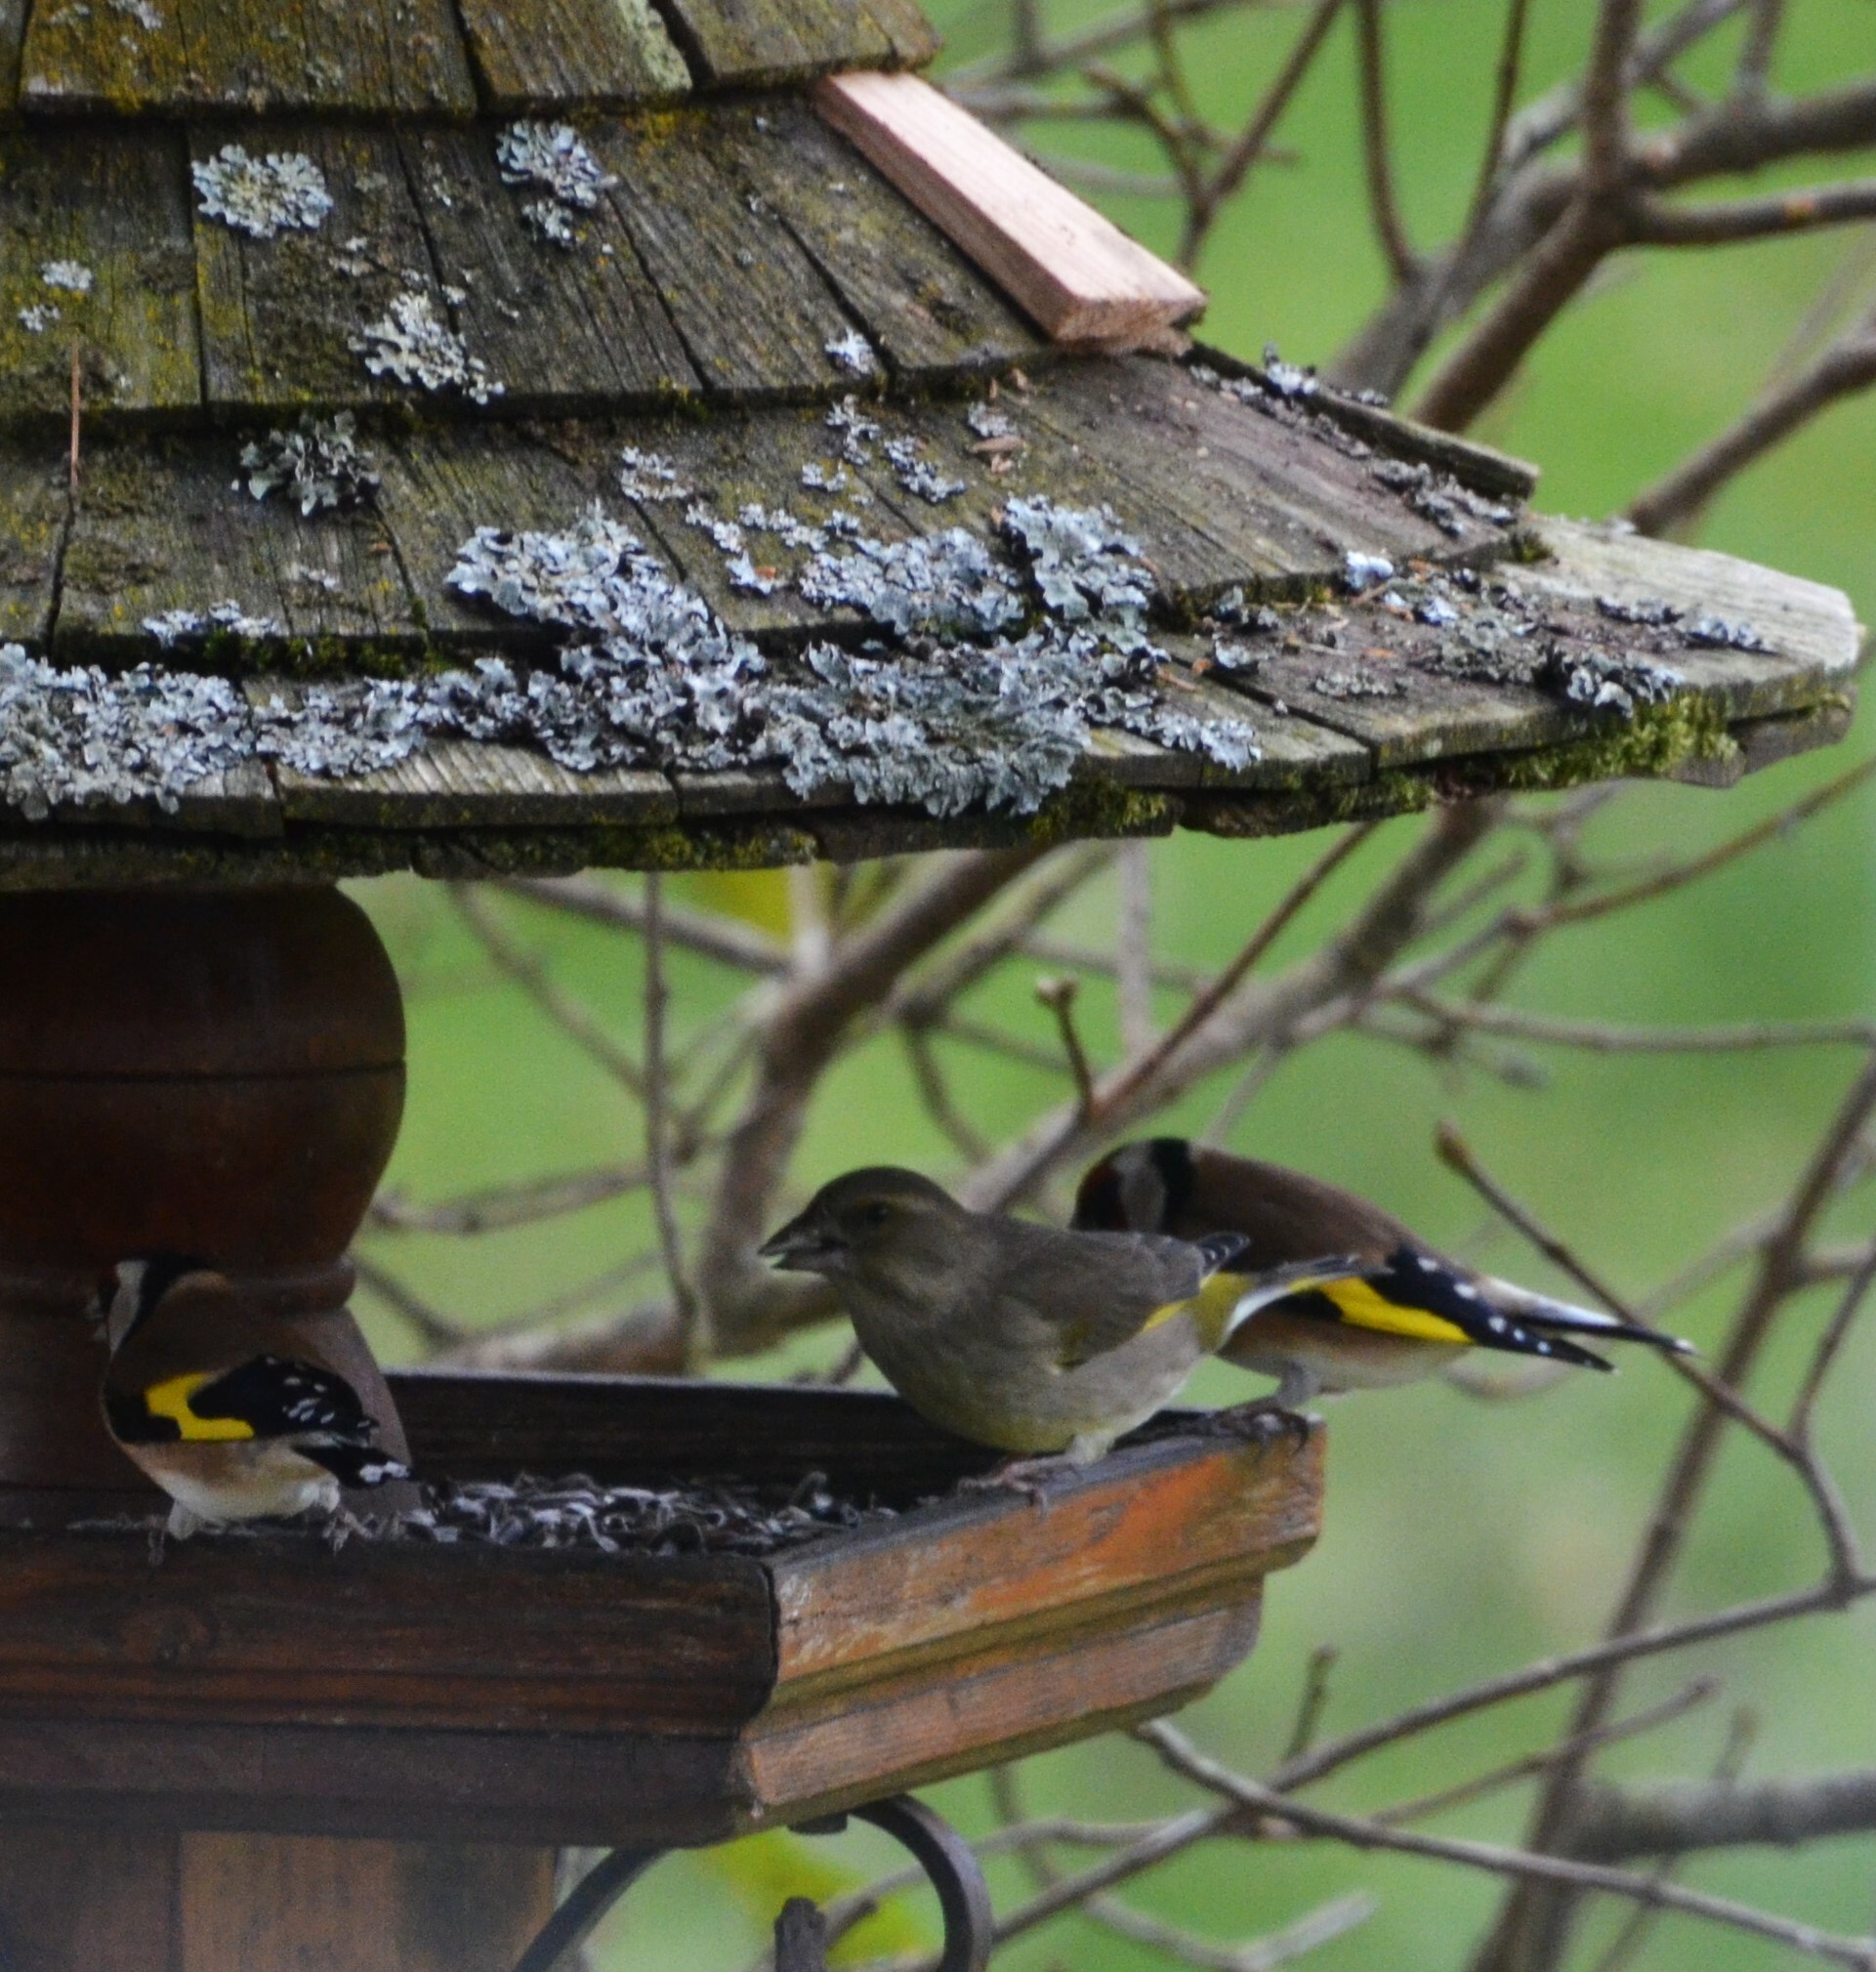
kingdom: Plantae
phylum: Tracheophyta
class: Liliopsida
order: Poales
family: Poaceae
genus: Chloris
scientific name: Chloris chloris
